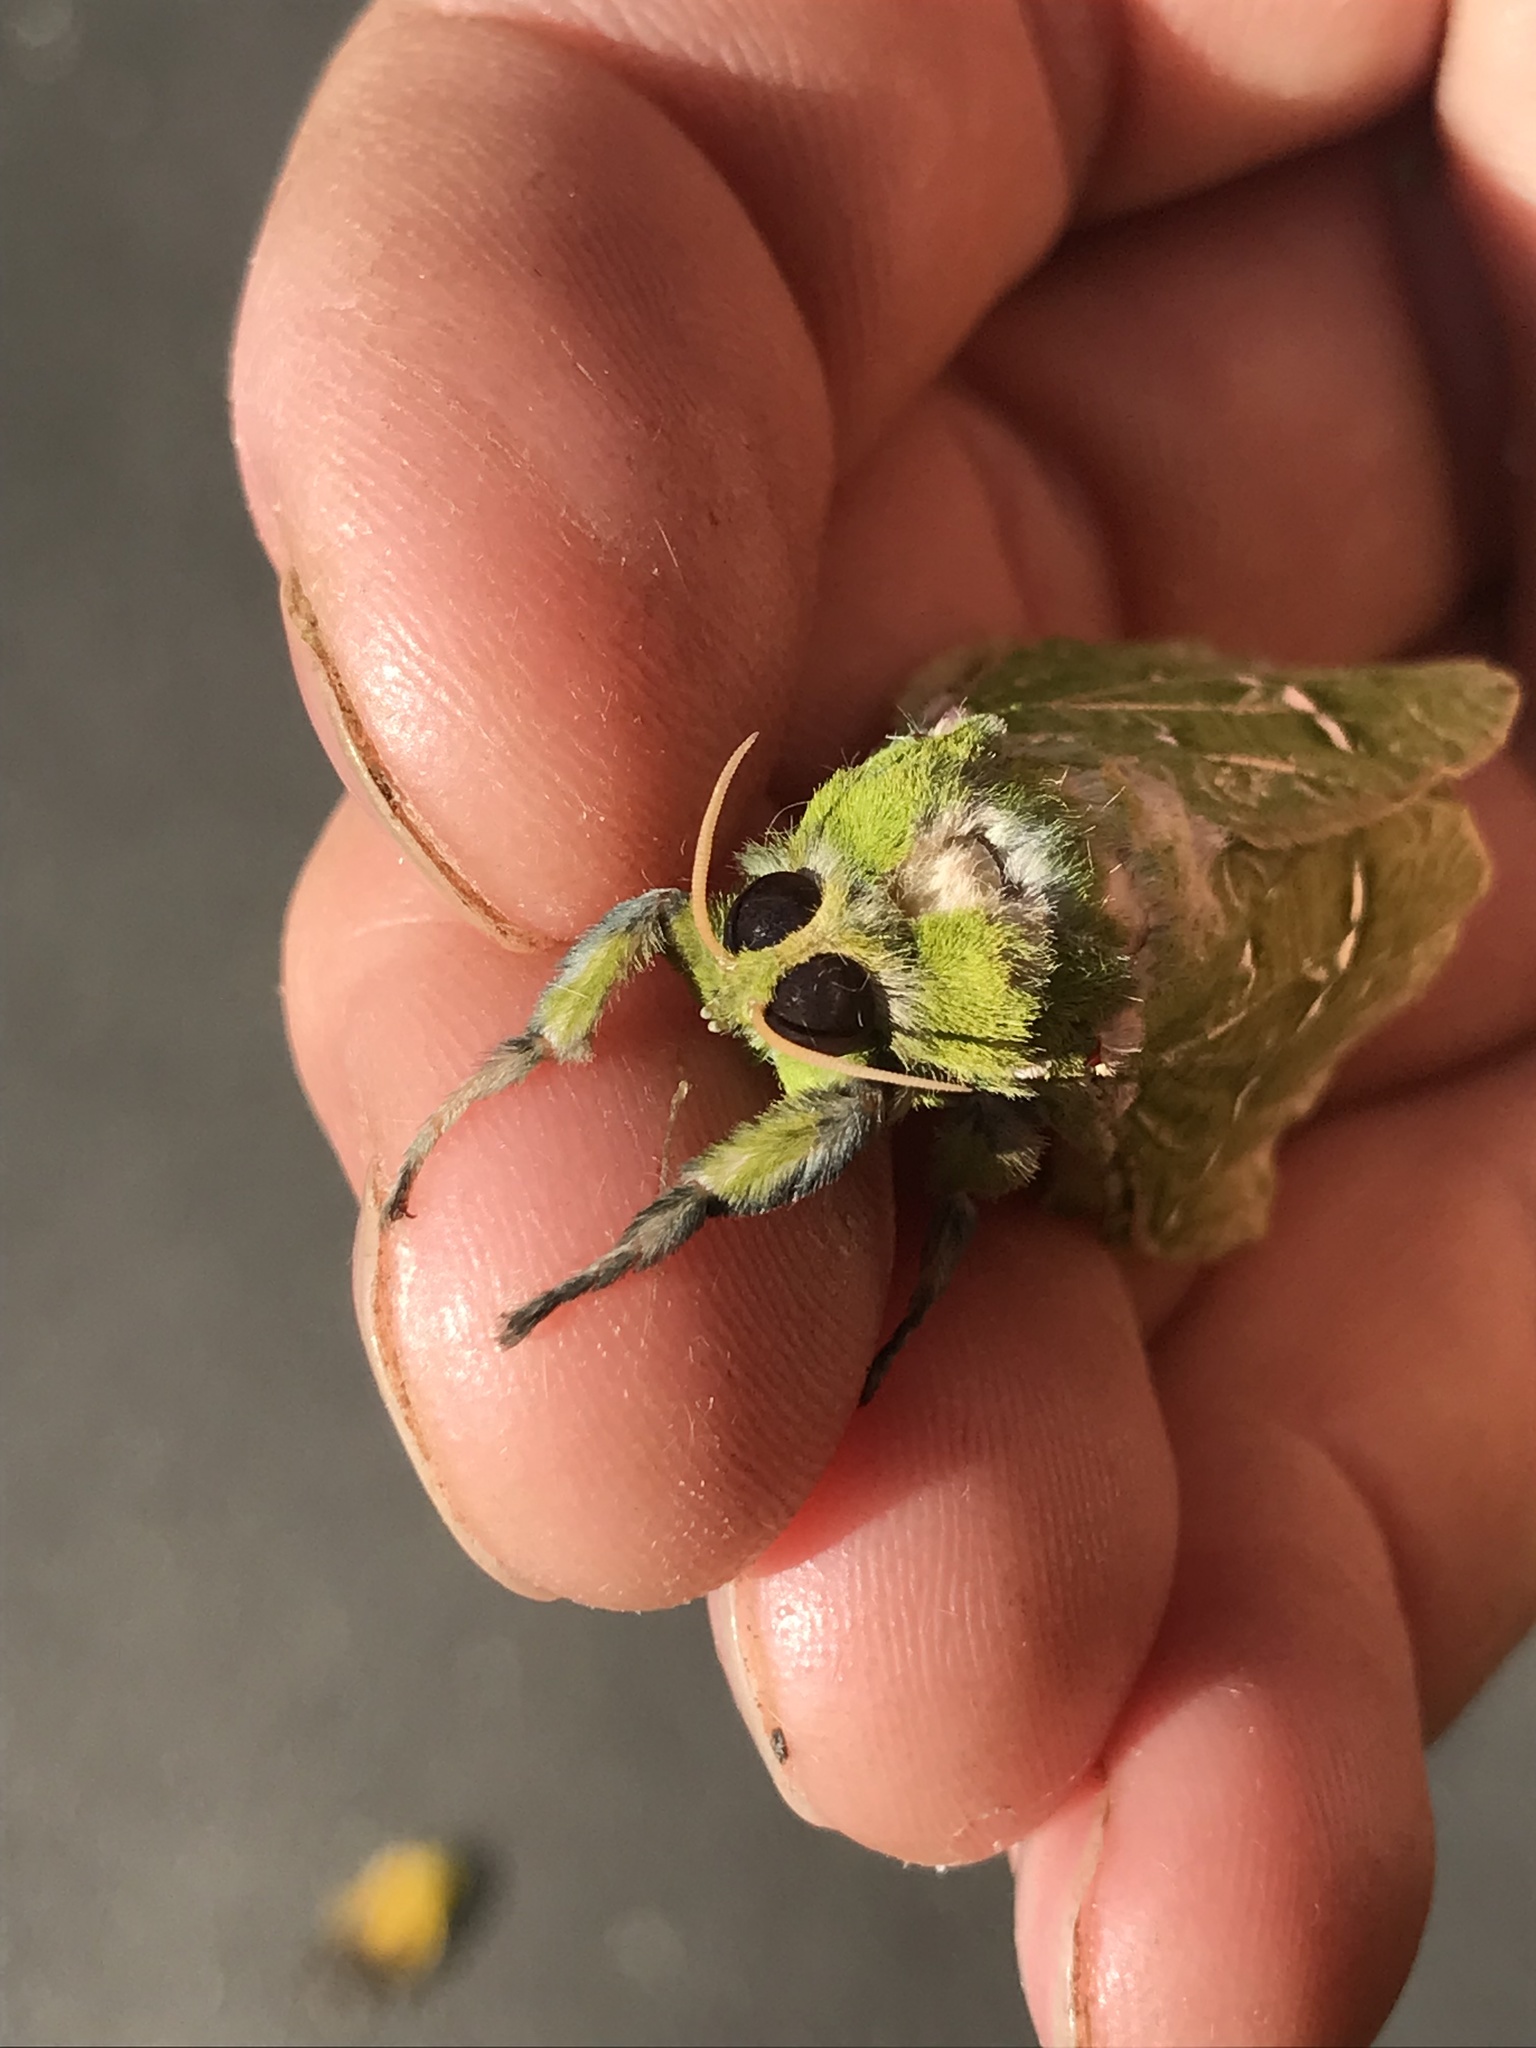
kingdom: Animalia
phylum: Arthropoda
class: Insecta
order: Lepidoptera
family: Hepialidae
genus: Aenetus
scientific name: Aenetus virescens
